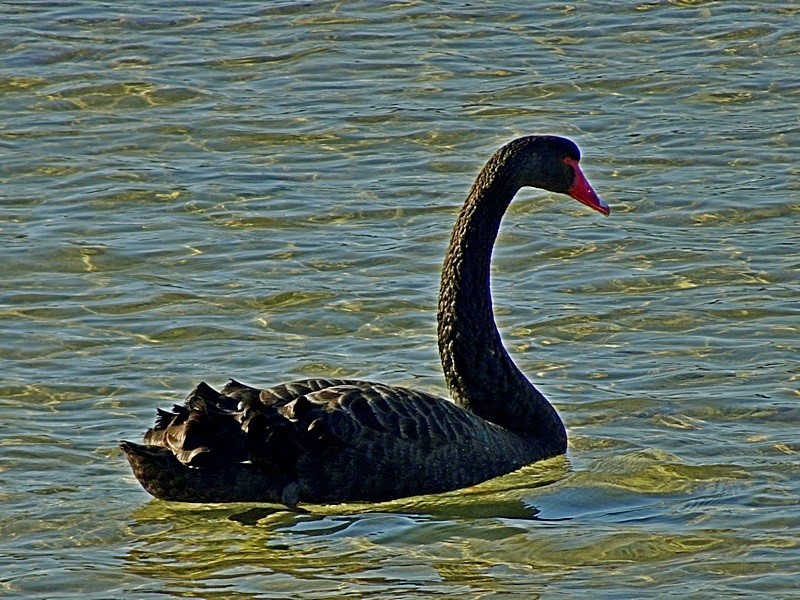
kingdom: Animalia
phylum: Chordata
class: Aves
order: Anseriformes
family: Anatidae
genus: Cygnus
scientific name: Cygnus atratus
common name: Black swan
